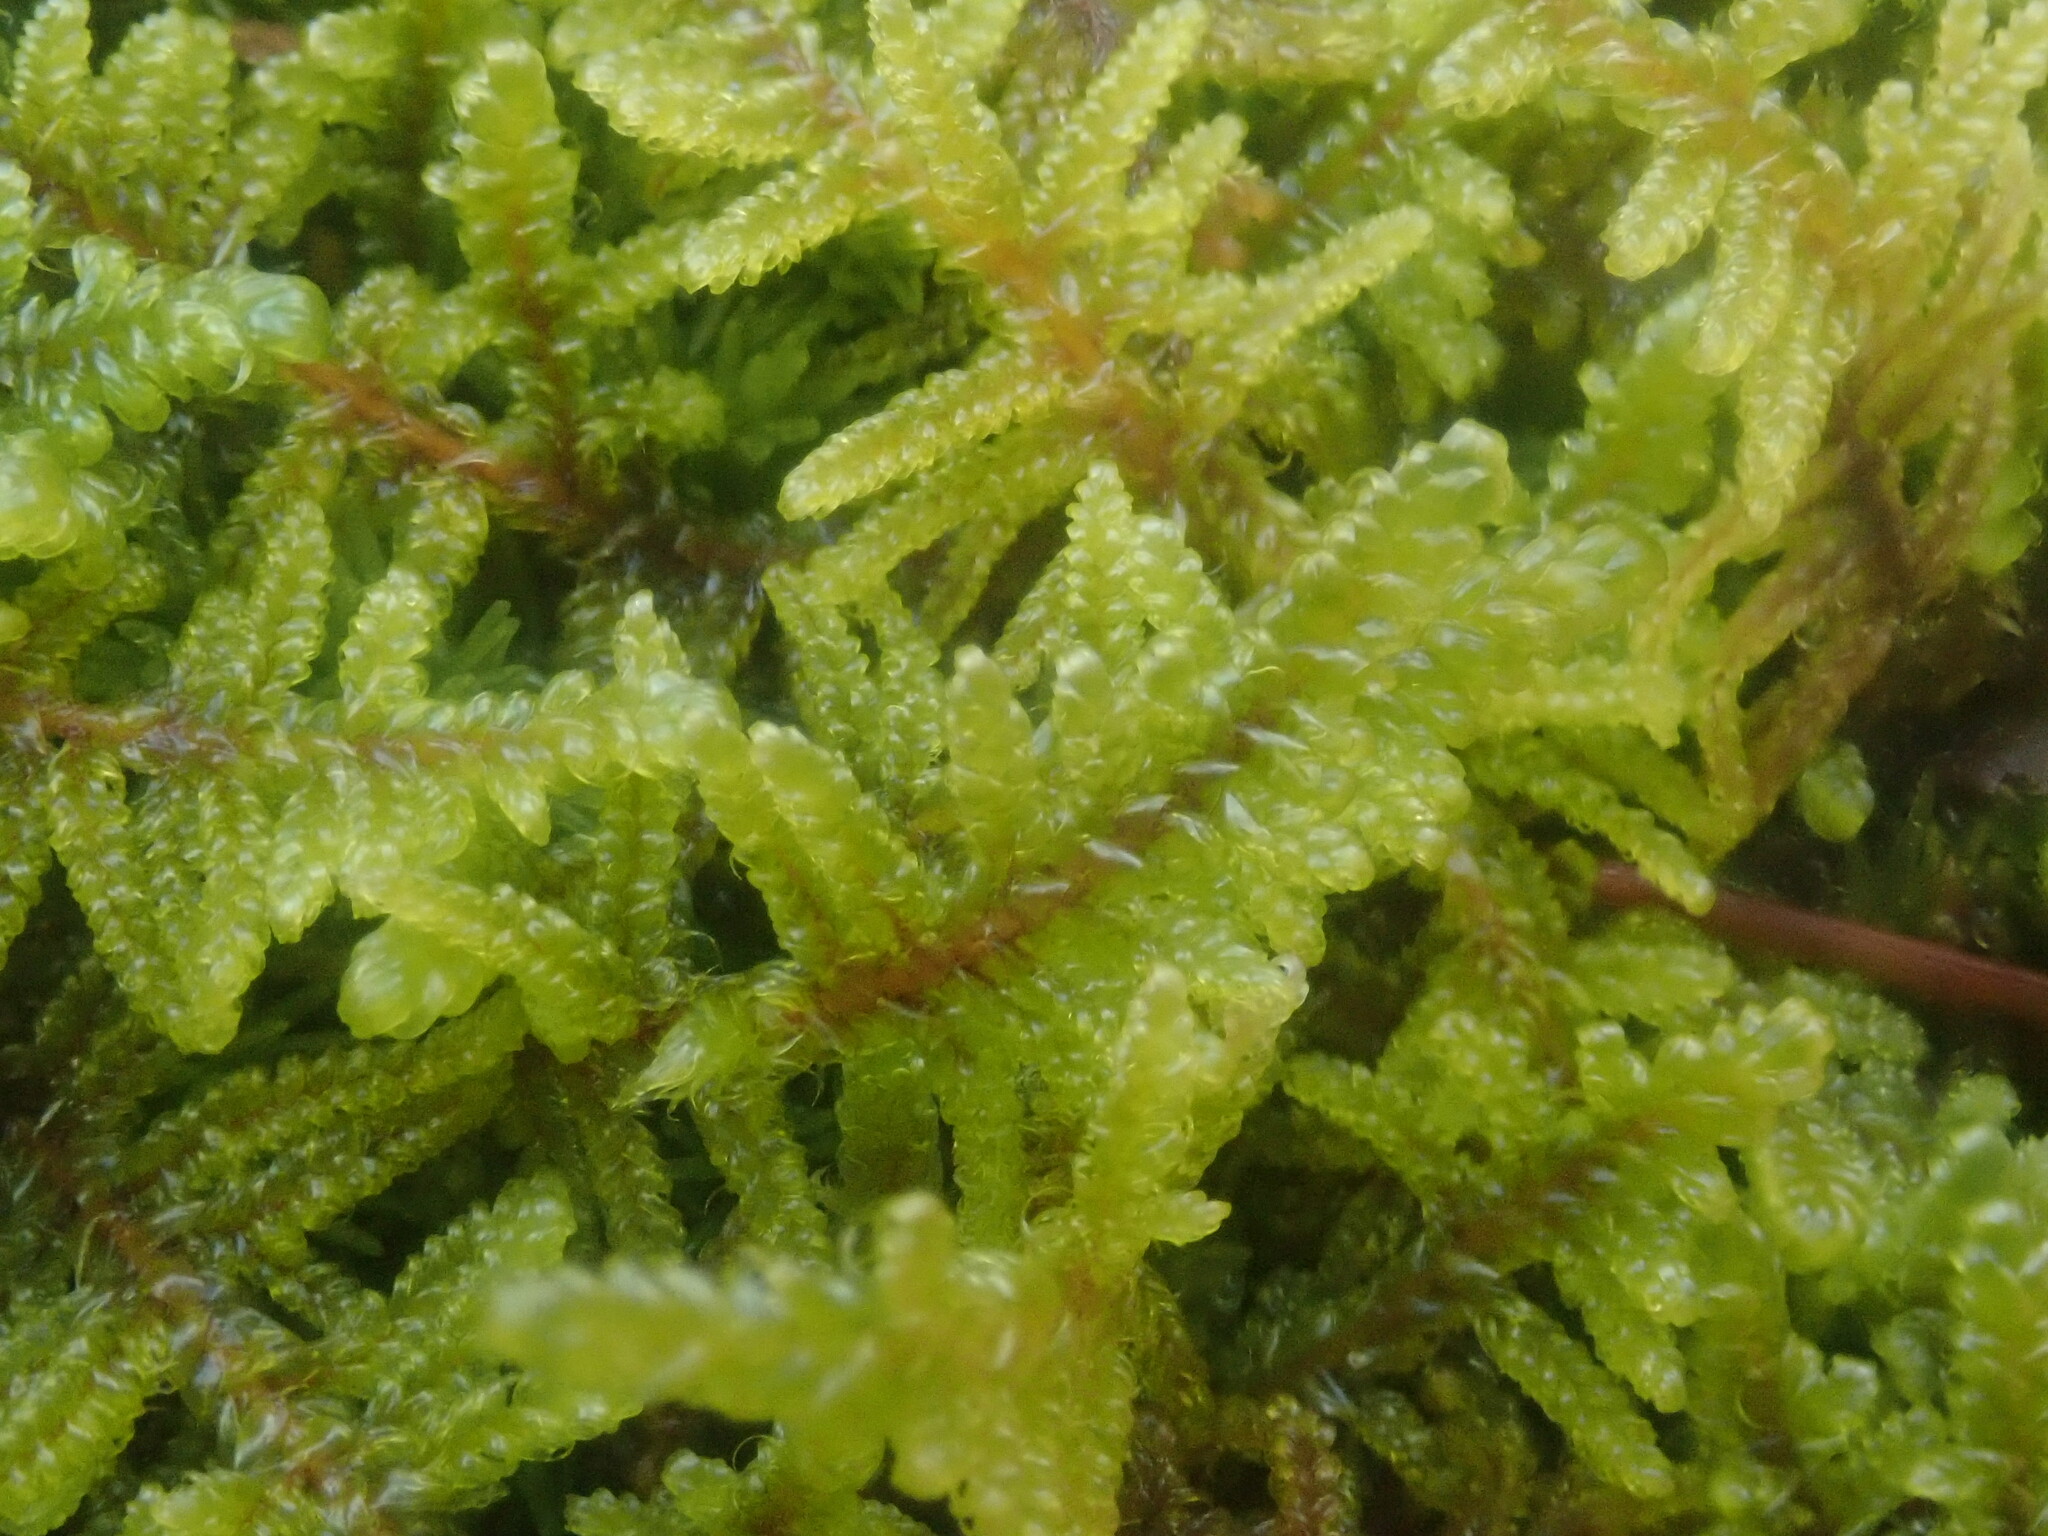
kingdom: Plantae
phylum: Bryophyta
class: Bryopsida
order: Hypnales
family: Callicladiaceae
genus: Callicladium
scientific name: Callicladium imponens
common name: Brocade moss
